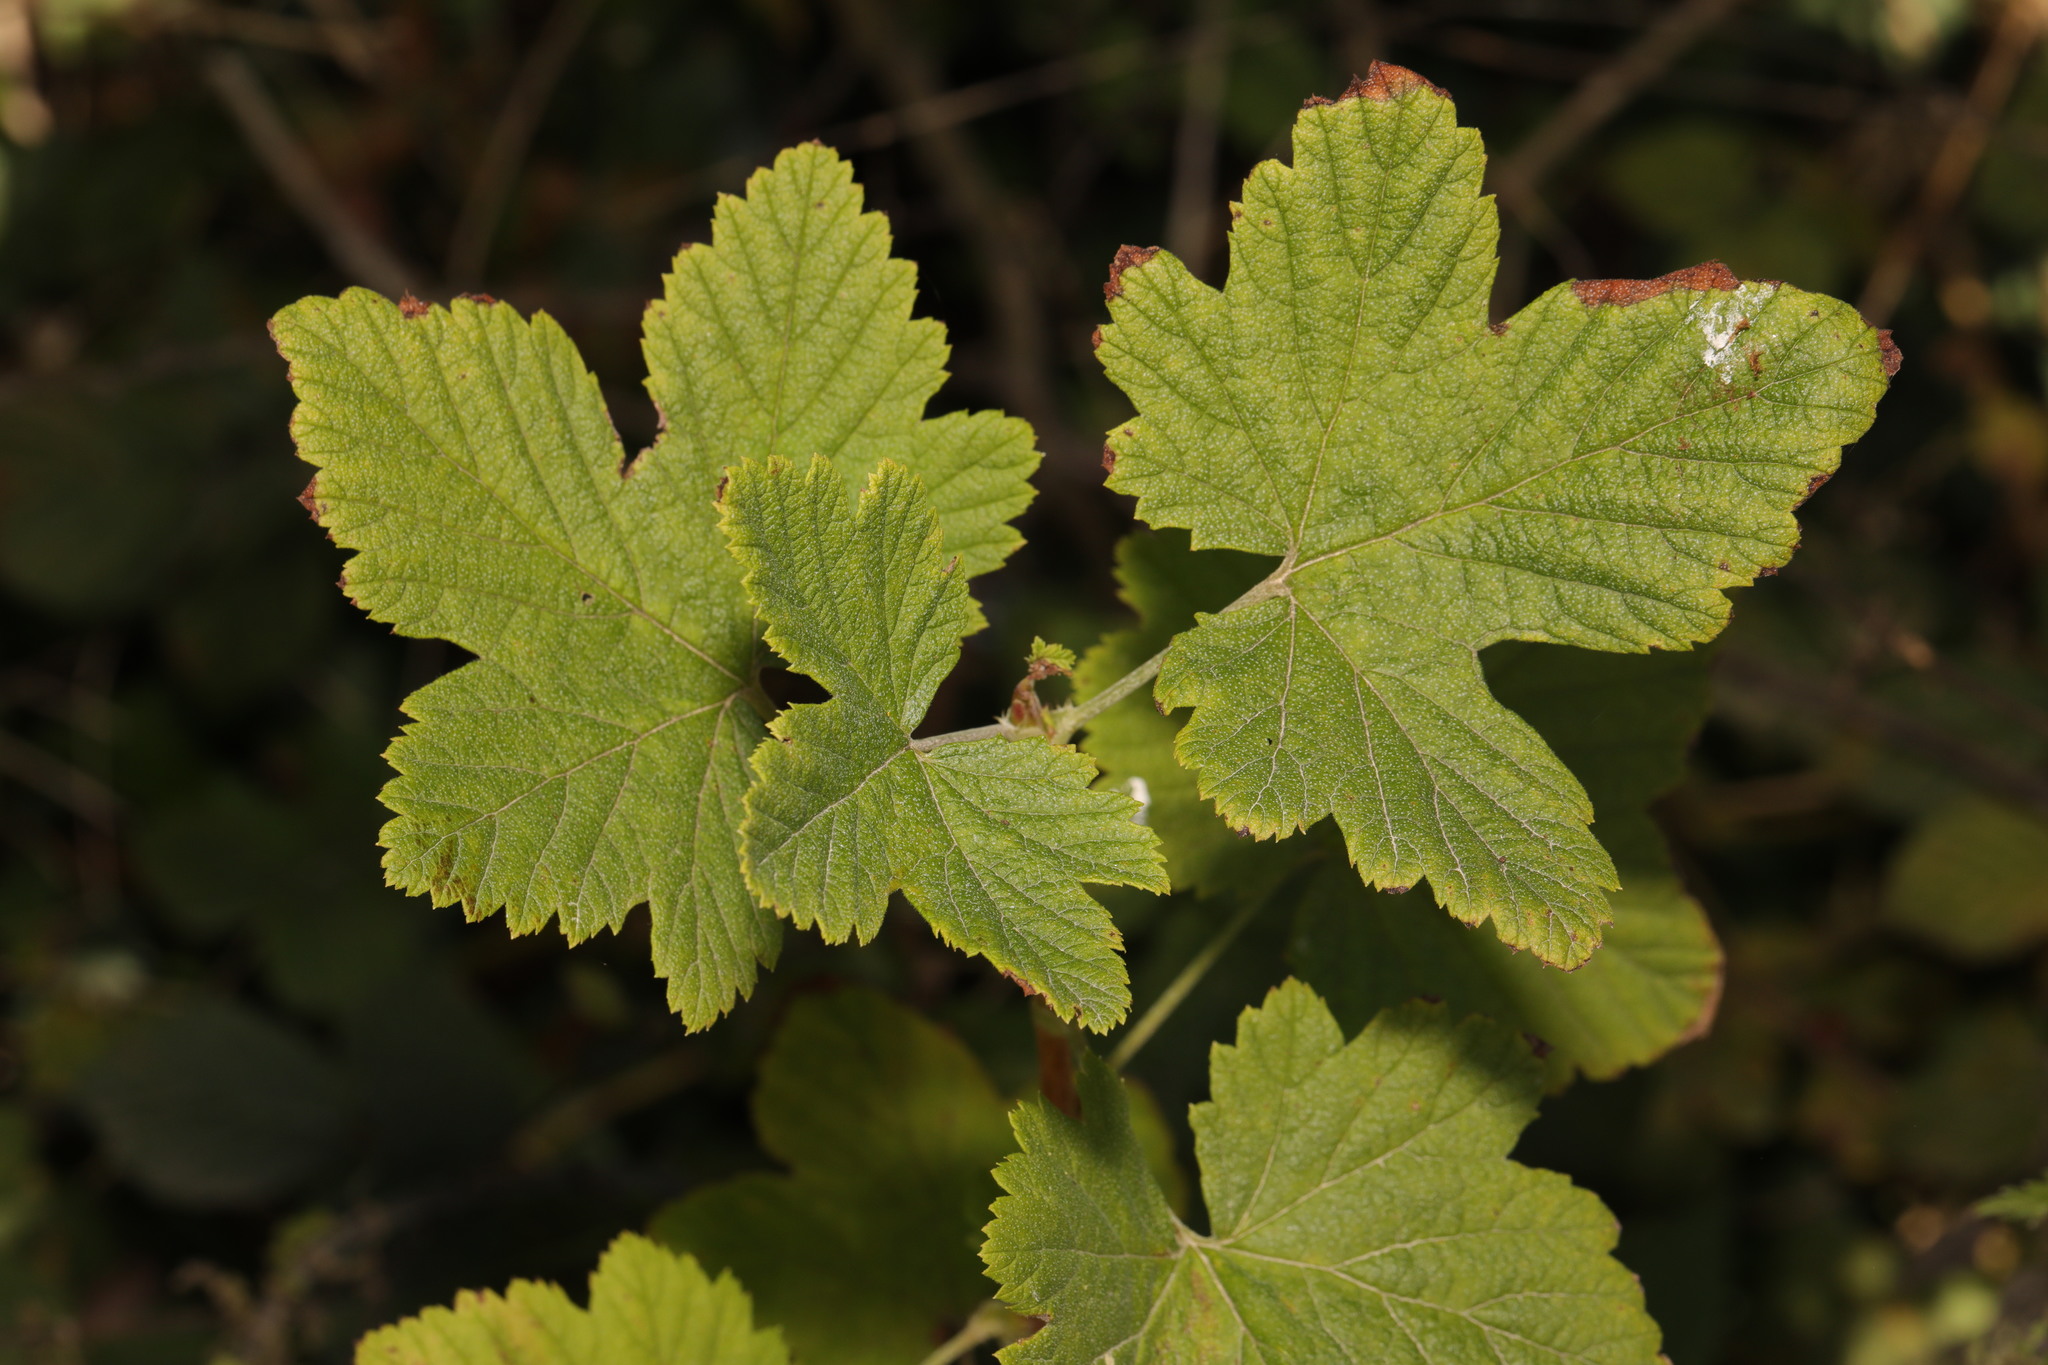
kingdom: Plantae
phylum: Tracheophyta
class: Magnoliopsida
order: Saxifragales
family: Grossulariaceae
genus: Ribes
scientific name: Ribes sanguineum
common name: Flowering currant
